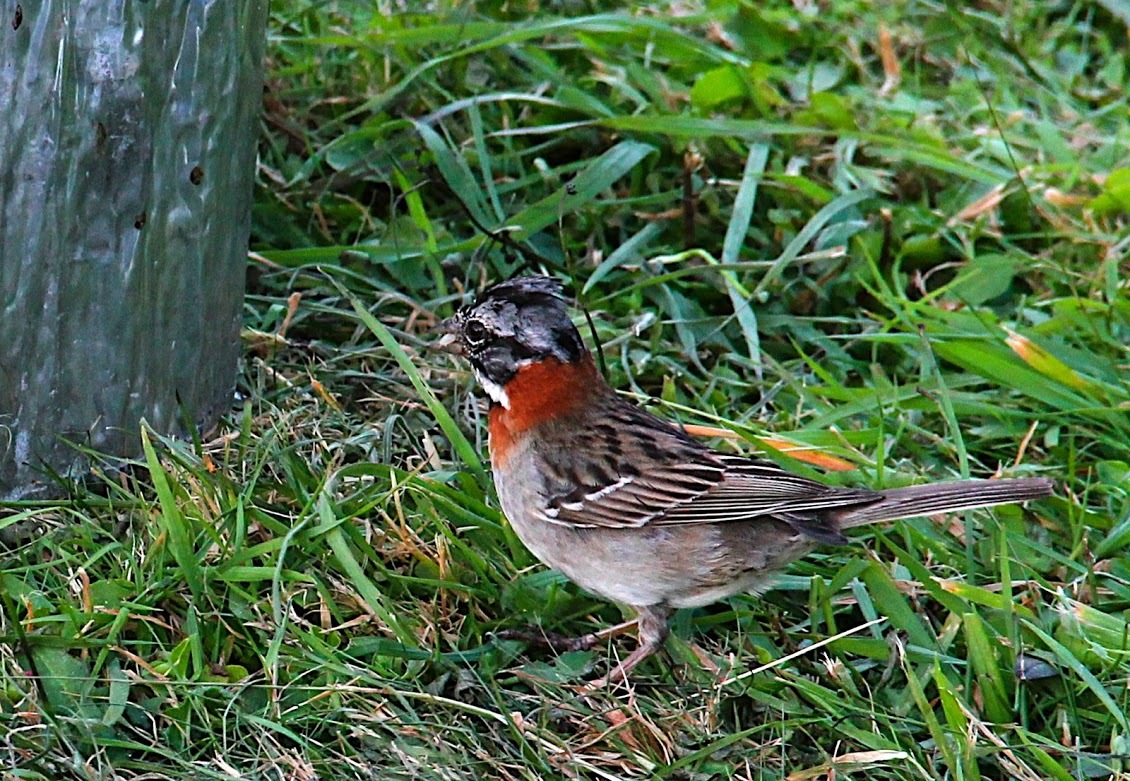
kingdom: Animalia
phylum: Chordata
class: Aves
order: Passeriformes
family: Passerellidae
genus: Zonotrichia
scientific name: Zonotrichia capensis
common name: Rufous-collared sparrow
